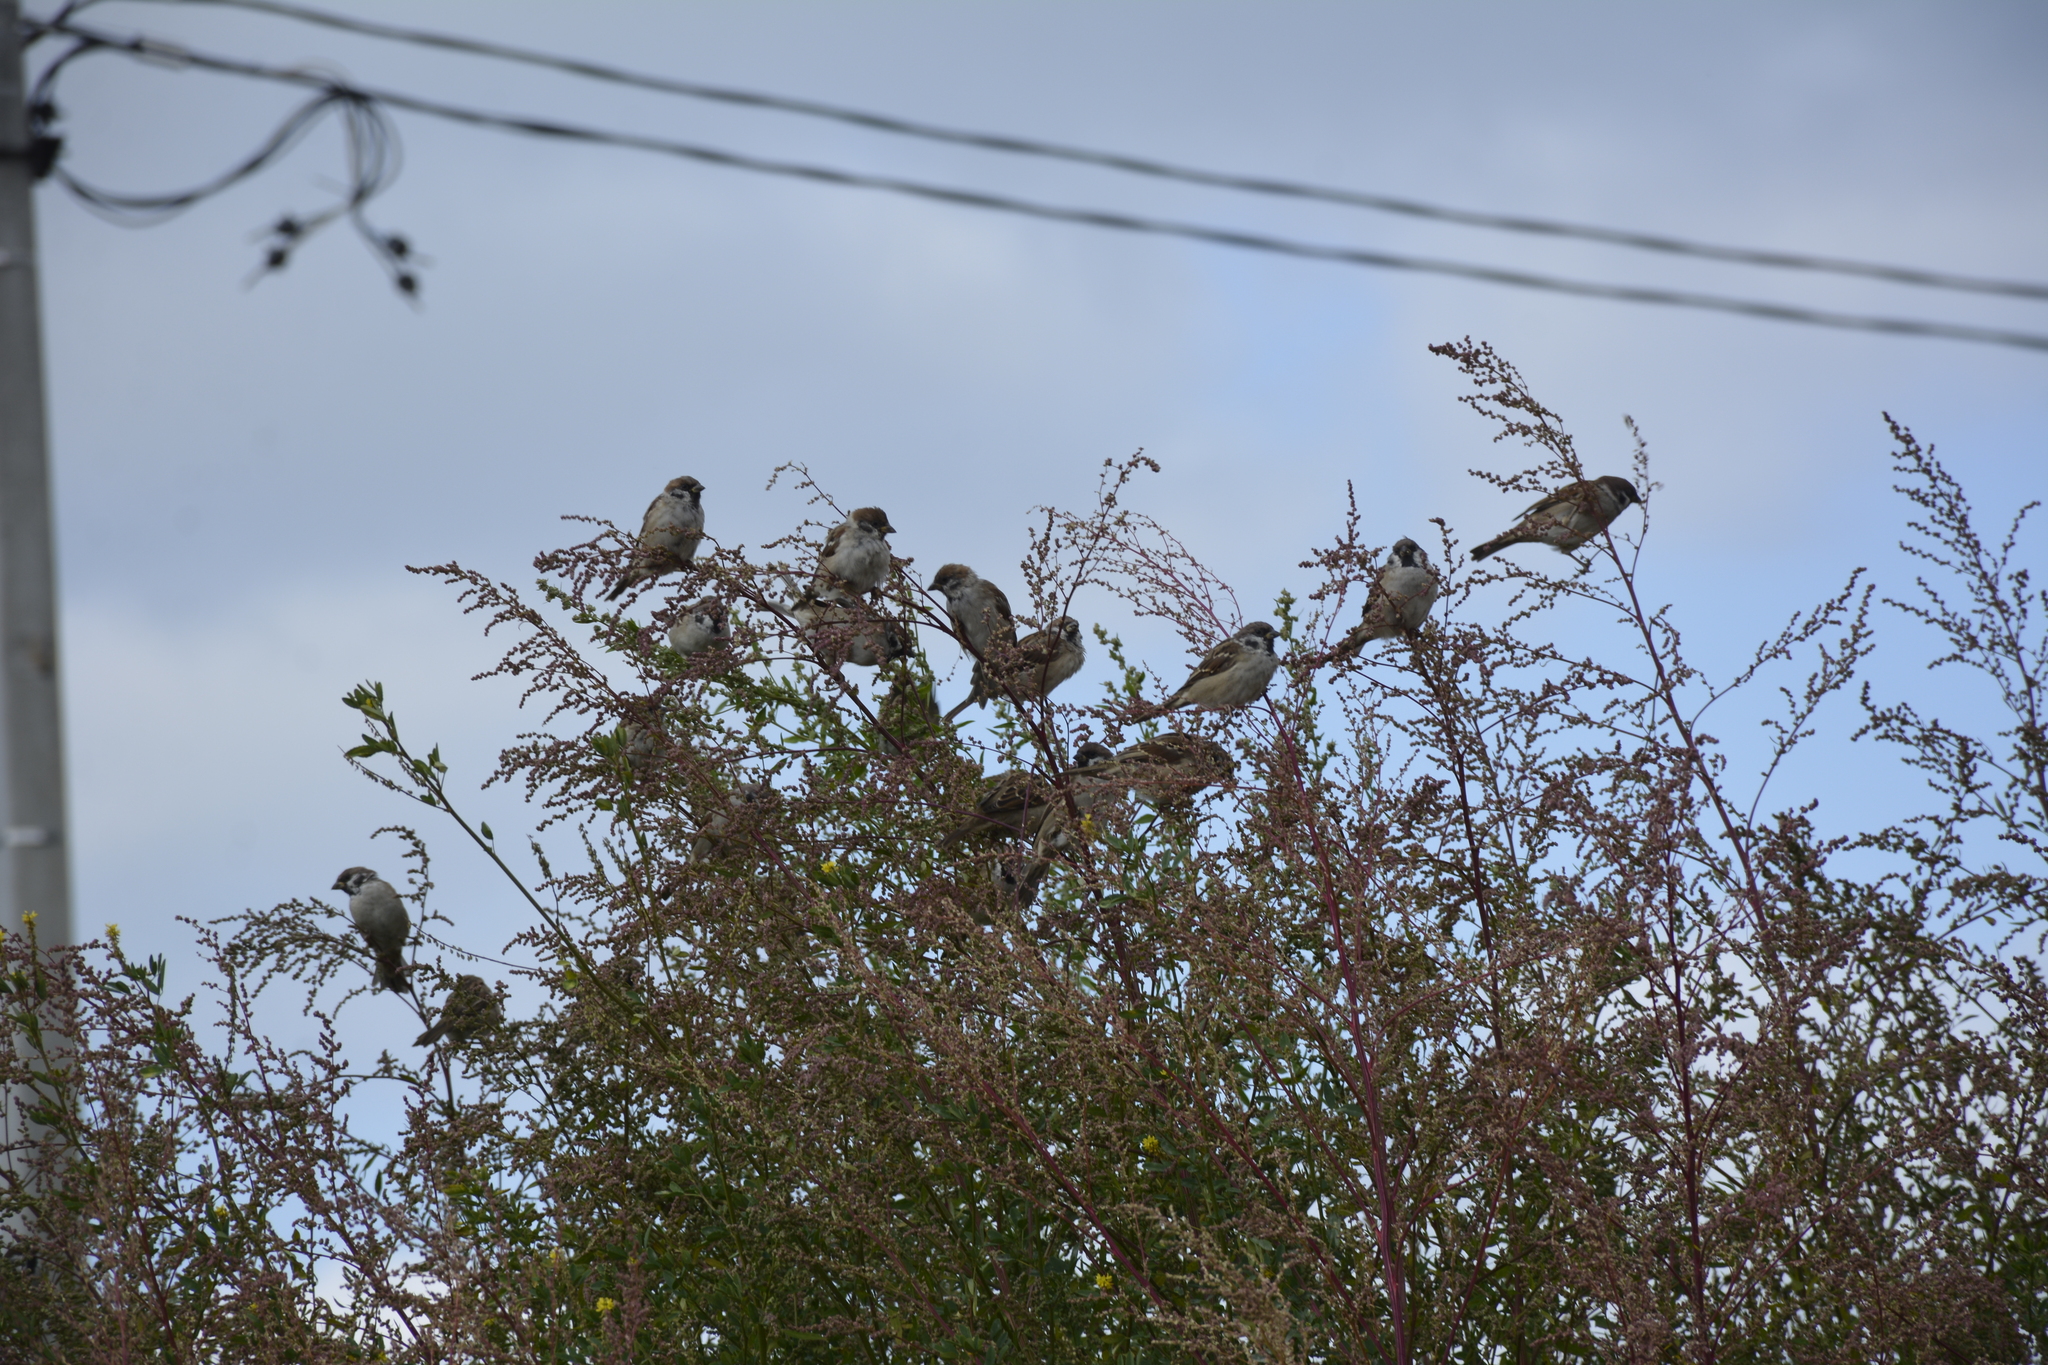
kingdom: Animalia
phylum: Chordata
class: Aves
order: Passeriformes
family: Passeridae
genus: Passer
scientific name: Passer montanus
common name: Eurasian tree sparrow
